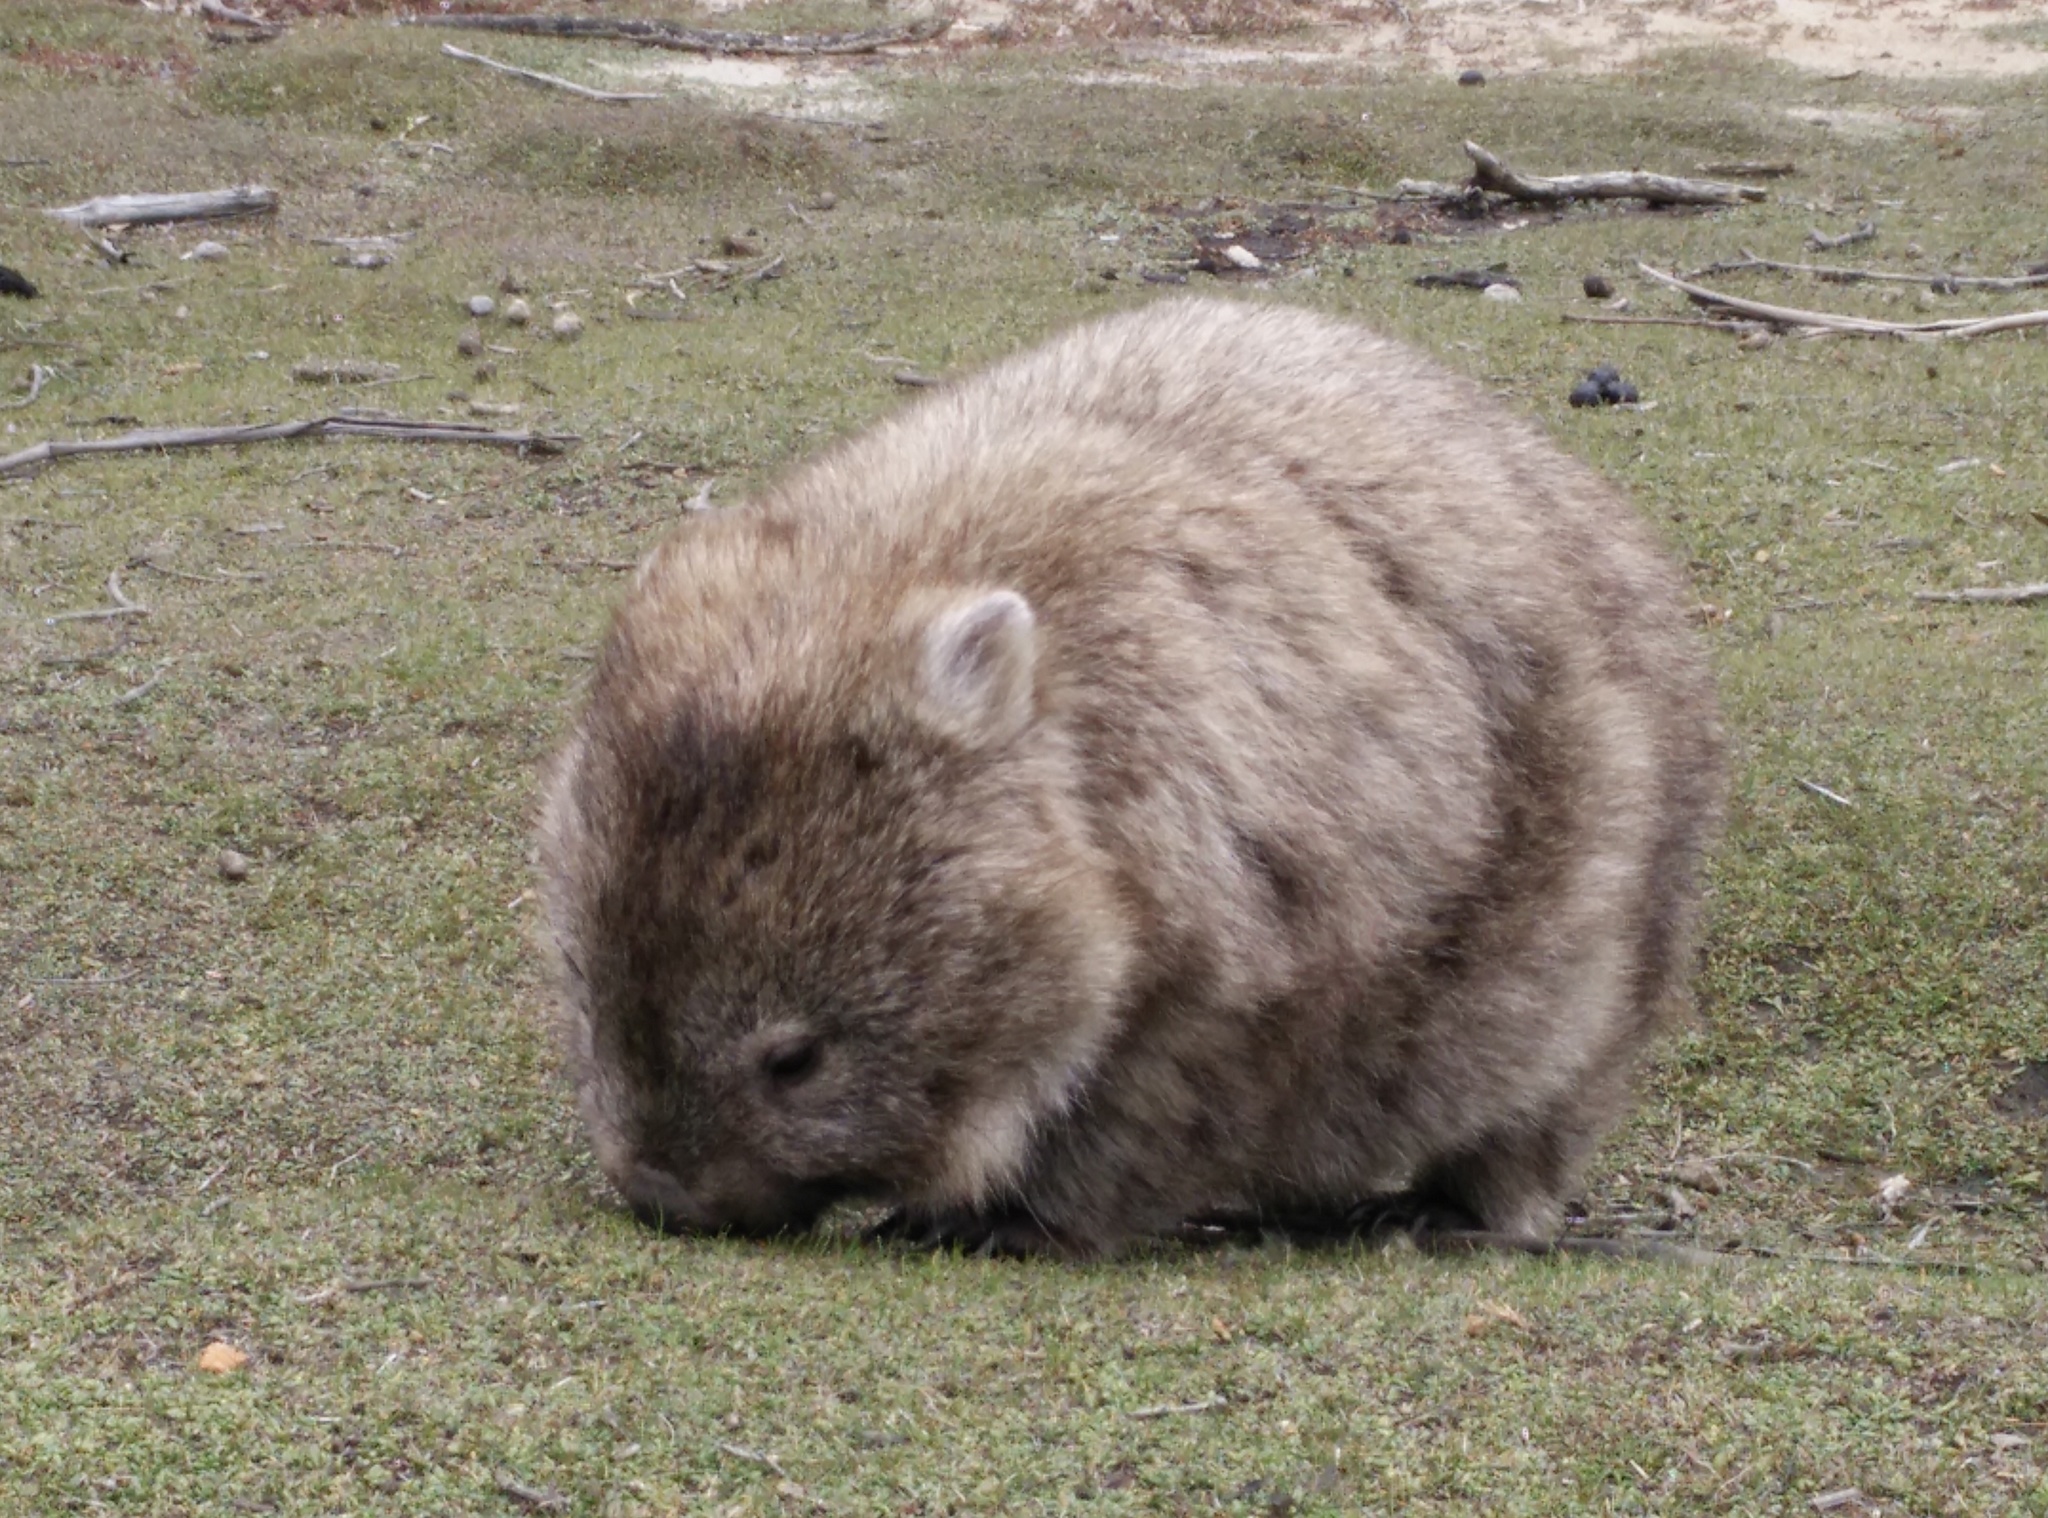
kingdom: Animalia
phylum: Chordata
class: Mammalia
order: Diprotodontia
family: Vombatidae
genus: Vombatus
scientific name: Vombatus ursinus
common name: Common wombat
